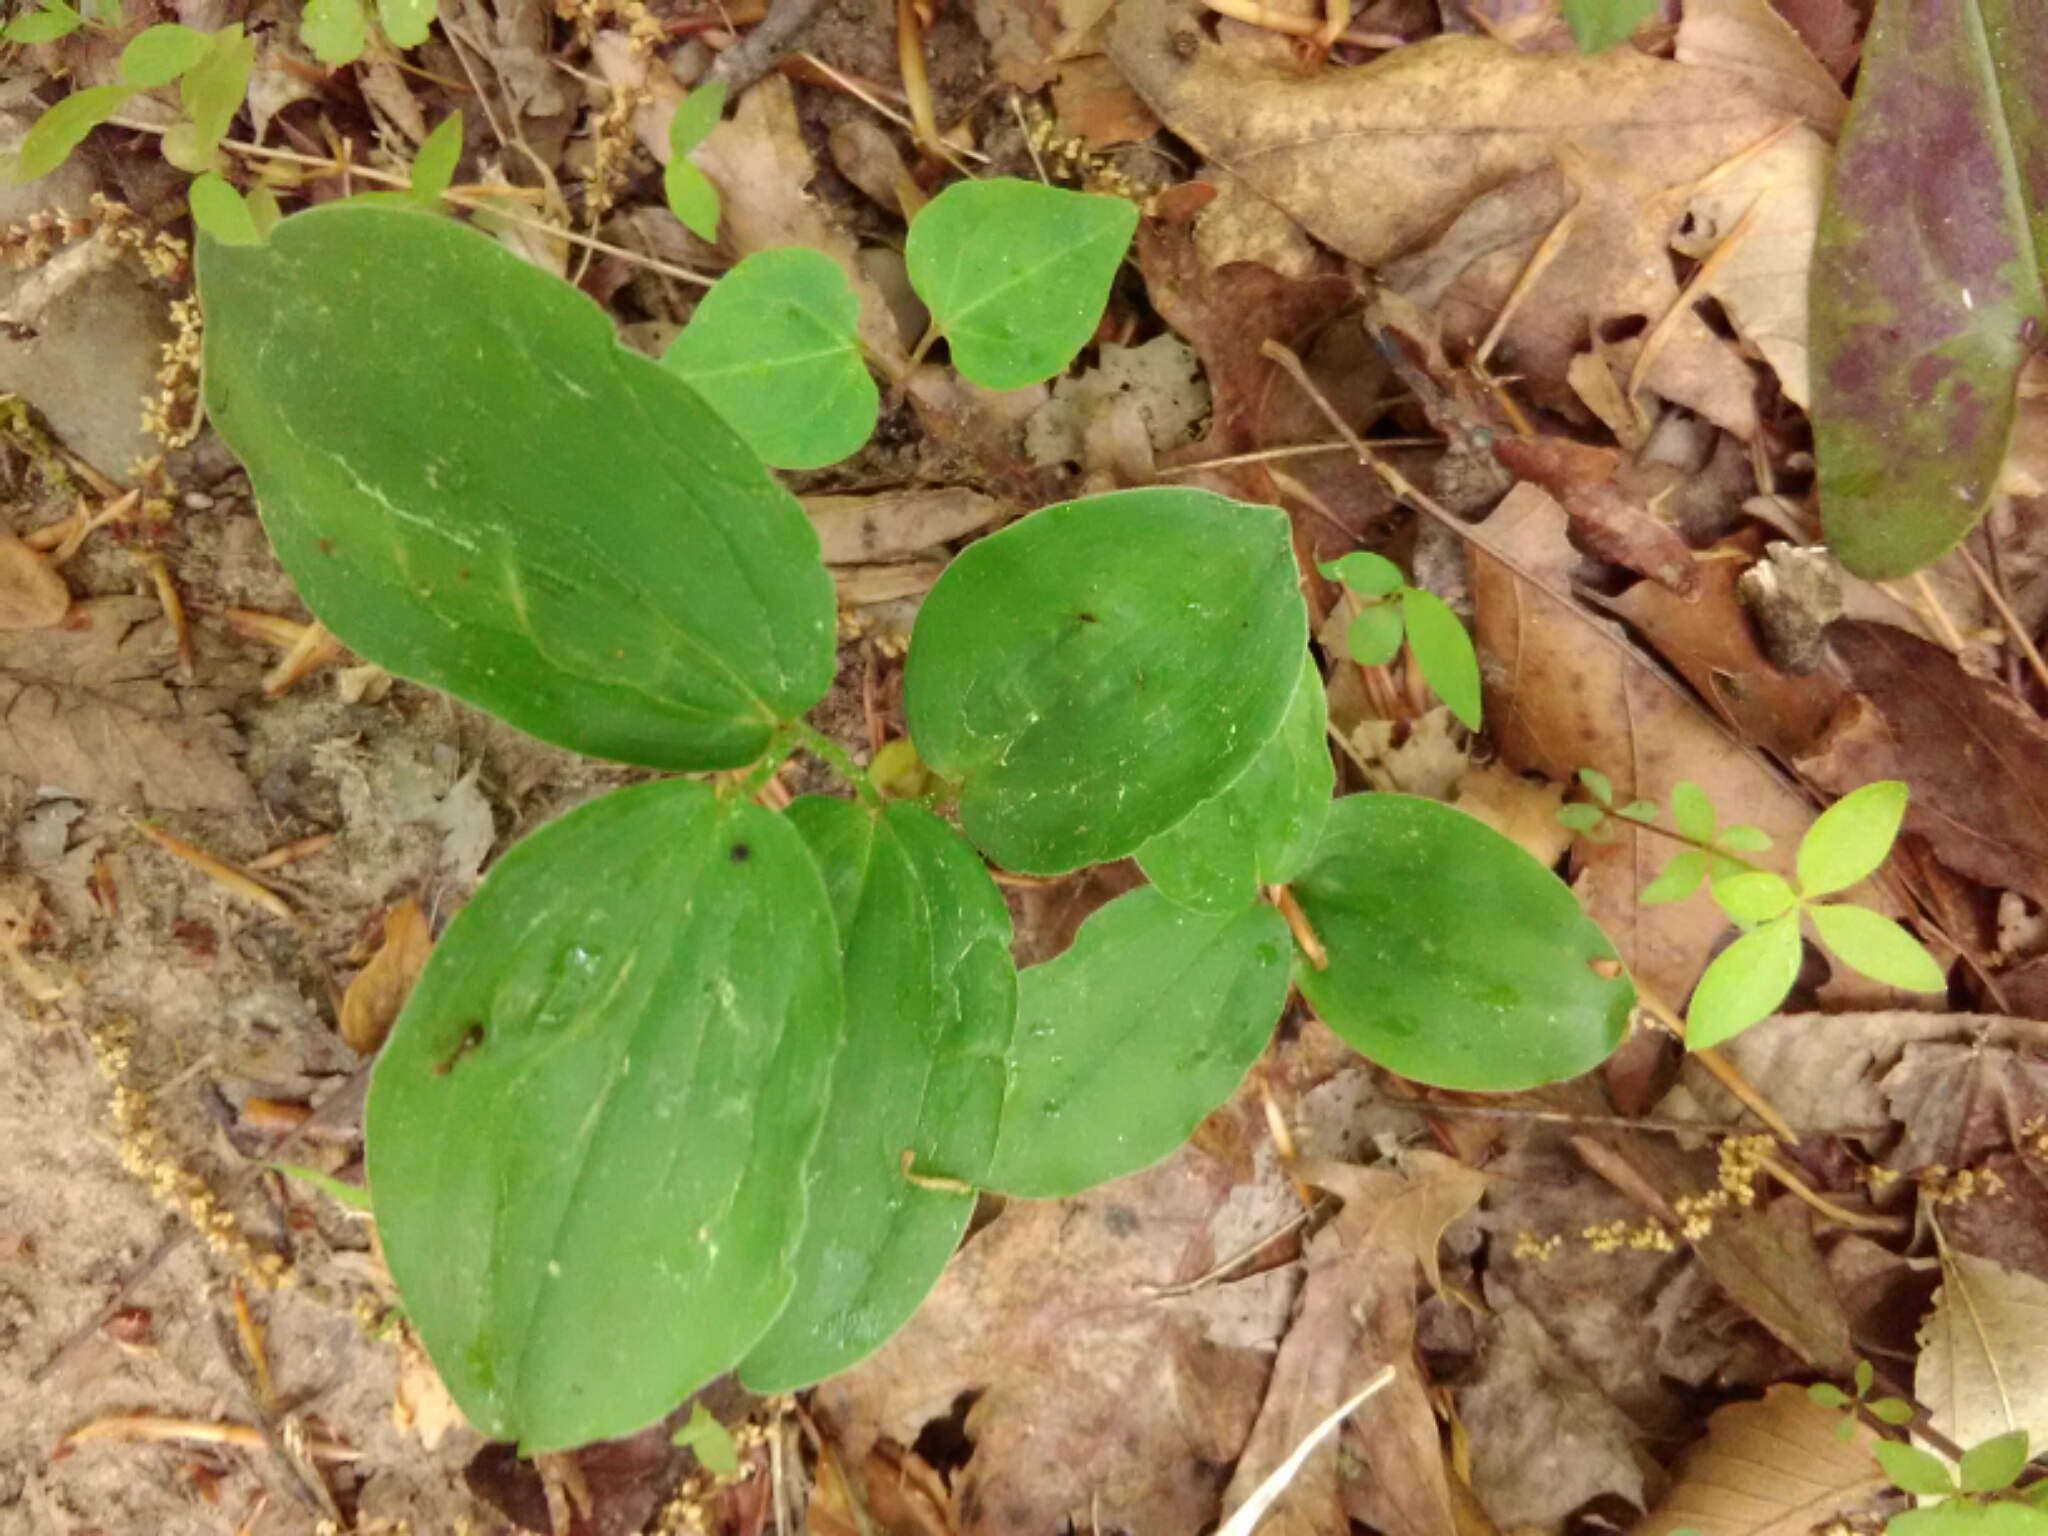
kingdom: Plantae
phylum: Tracheophyta
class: Liliopsida
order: Asparagales
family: Asparagaceae
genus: Maianthemum
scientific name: Maianthemum racemosum
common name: False spikenard
